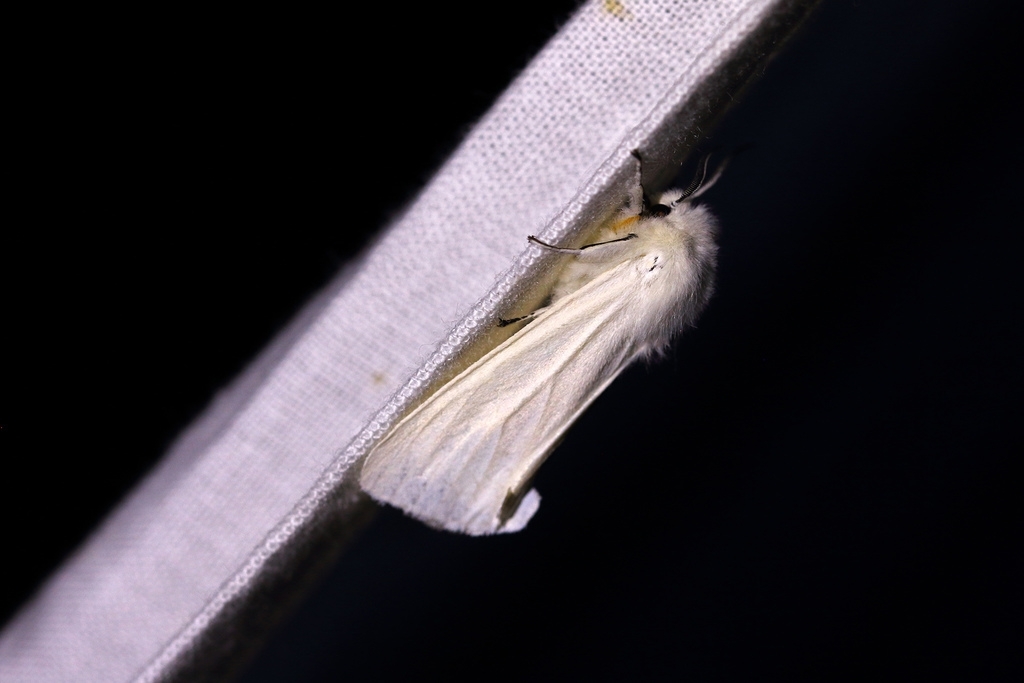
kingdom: Animalia
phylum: Arthropoda
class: Insecta
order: Lepidoptera
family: Erebidae
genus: Spilosoma
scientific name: Spilosoma urticae
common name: Water ermine
